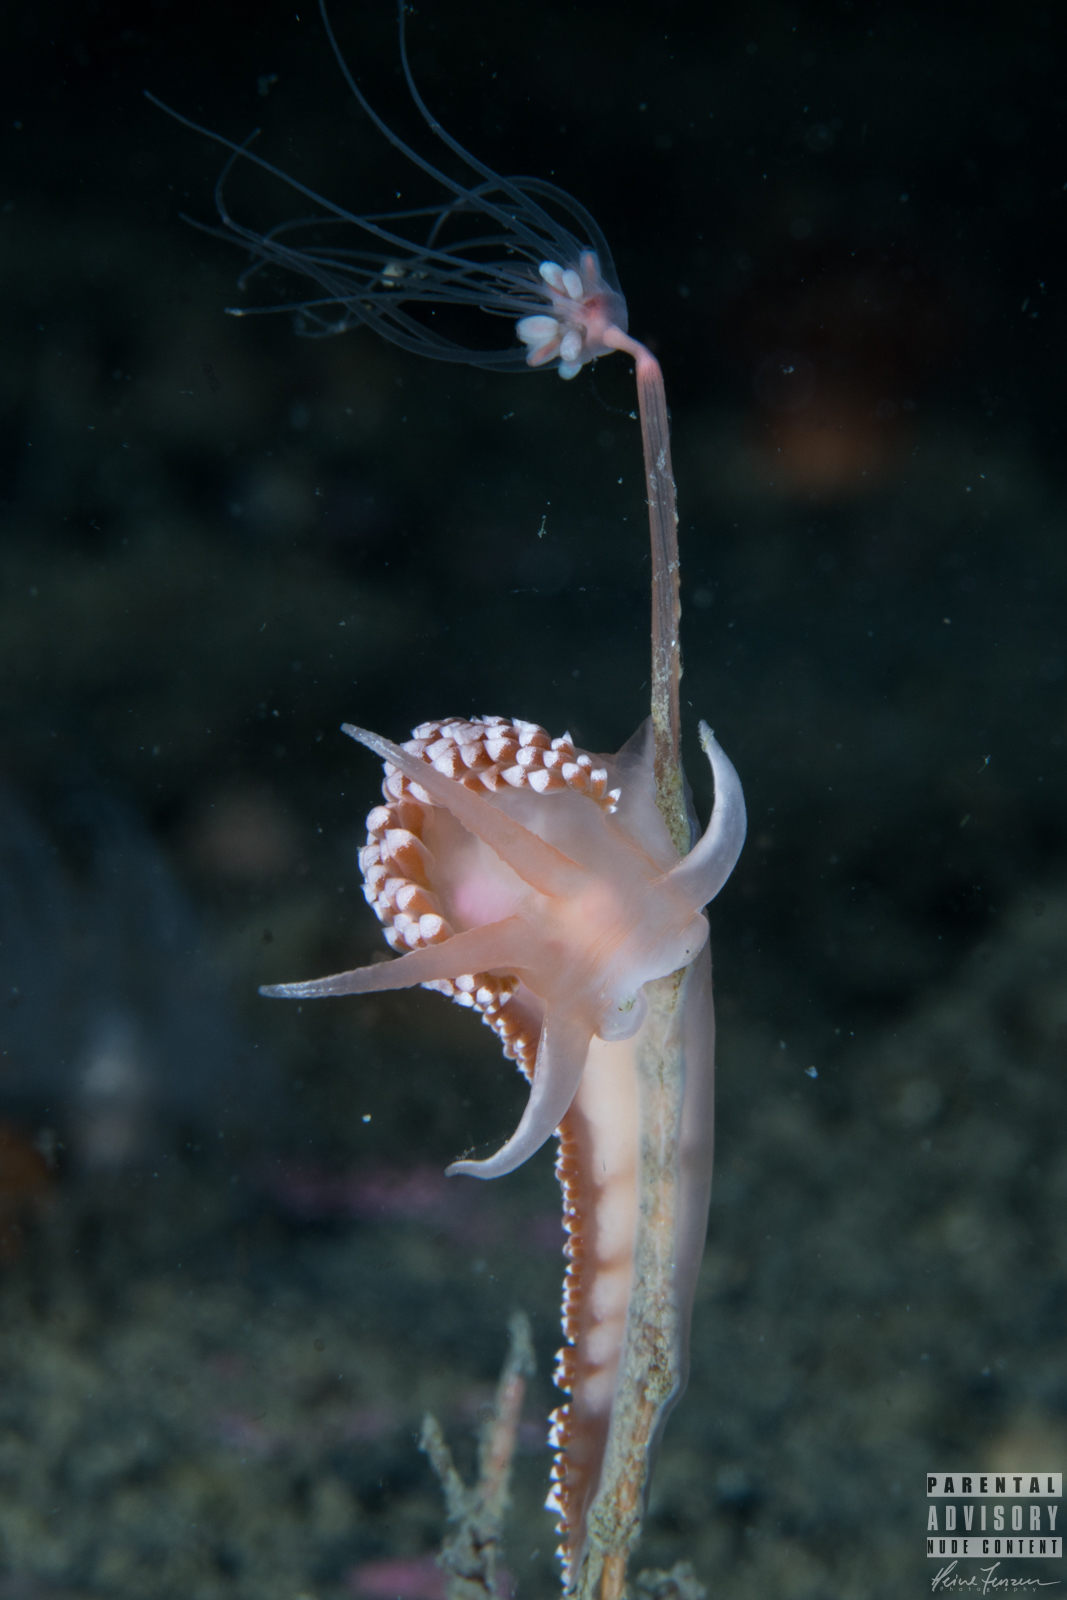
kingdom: Animalia
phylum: Mollusca
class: Gastropoda
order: Nudibranchia
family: Coryphellidae
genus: Coryphella
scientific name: Coryphella verrucosa
